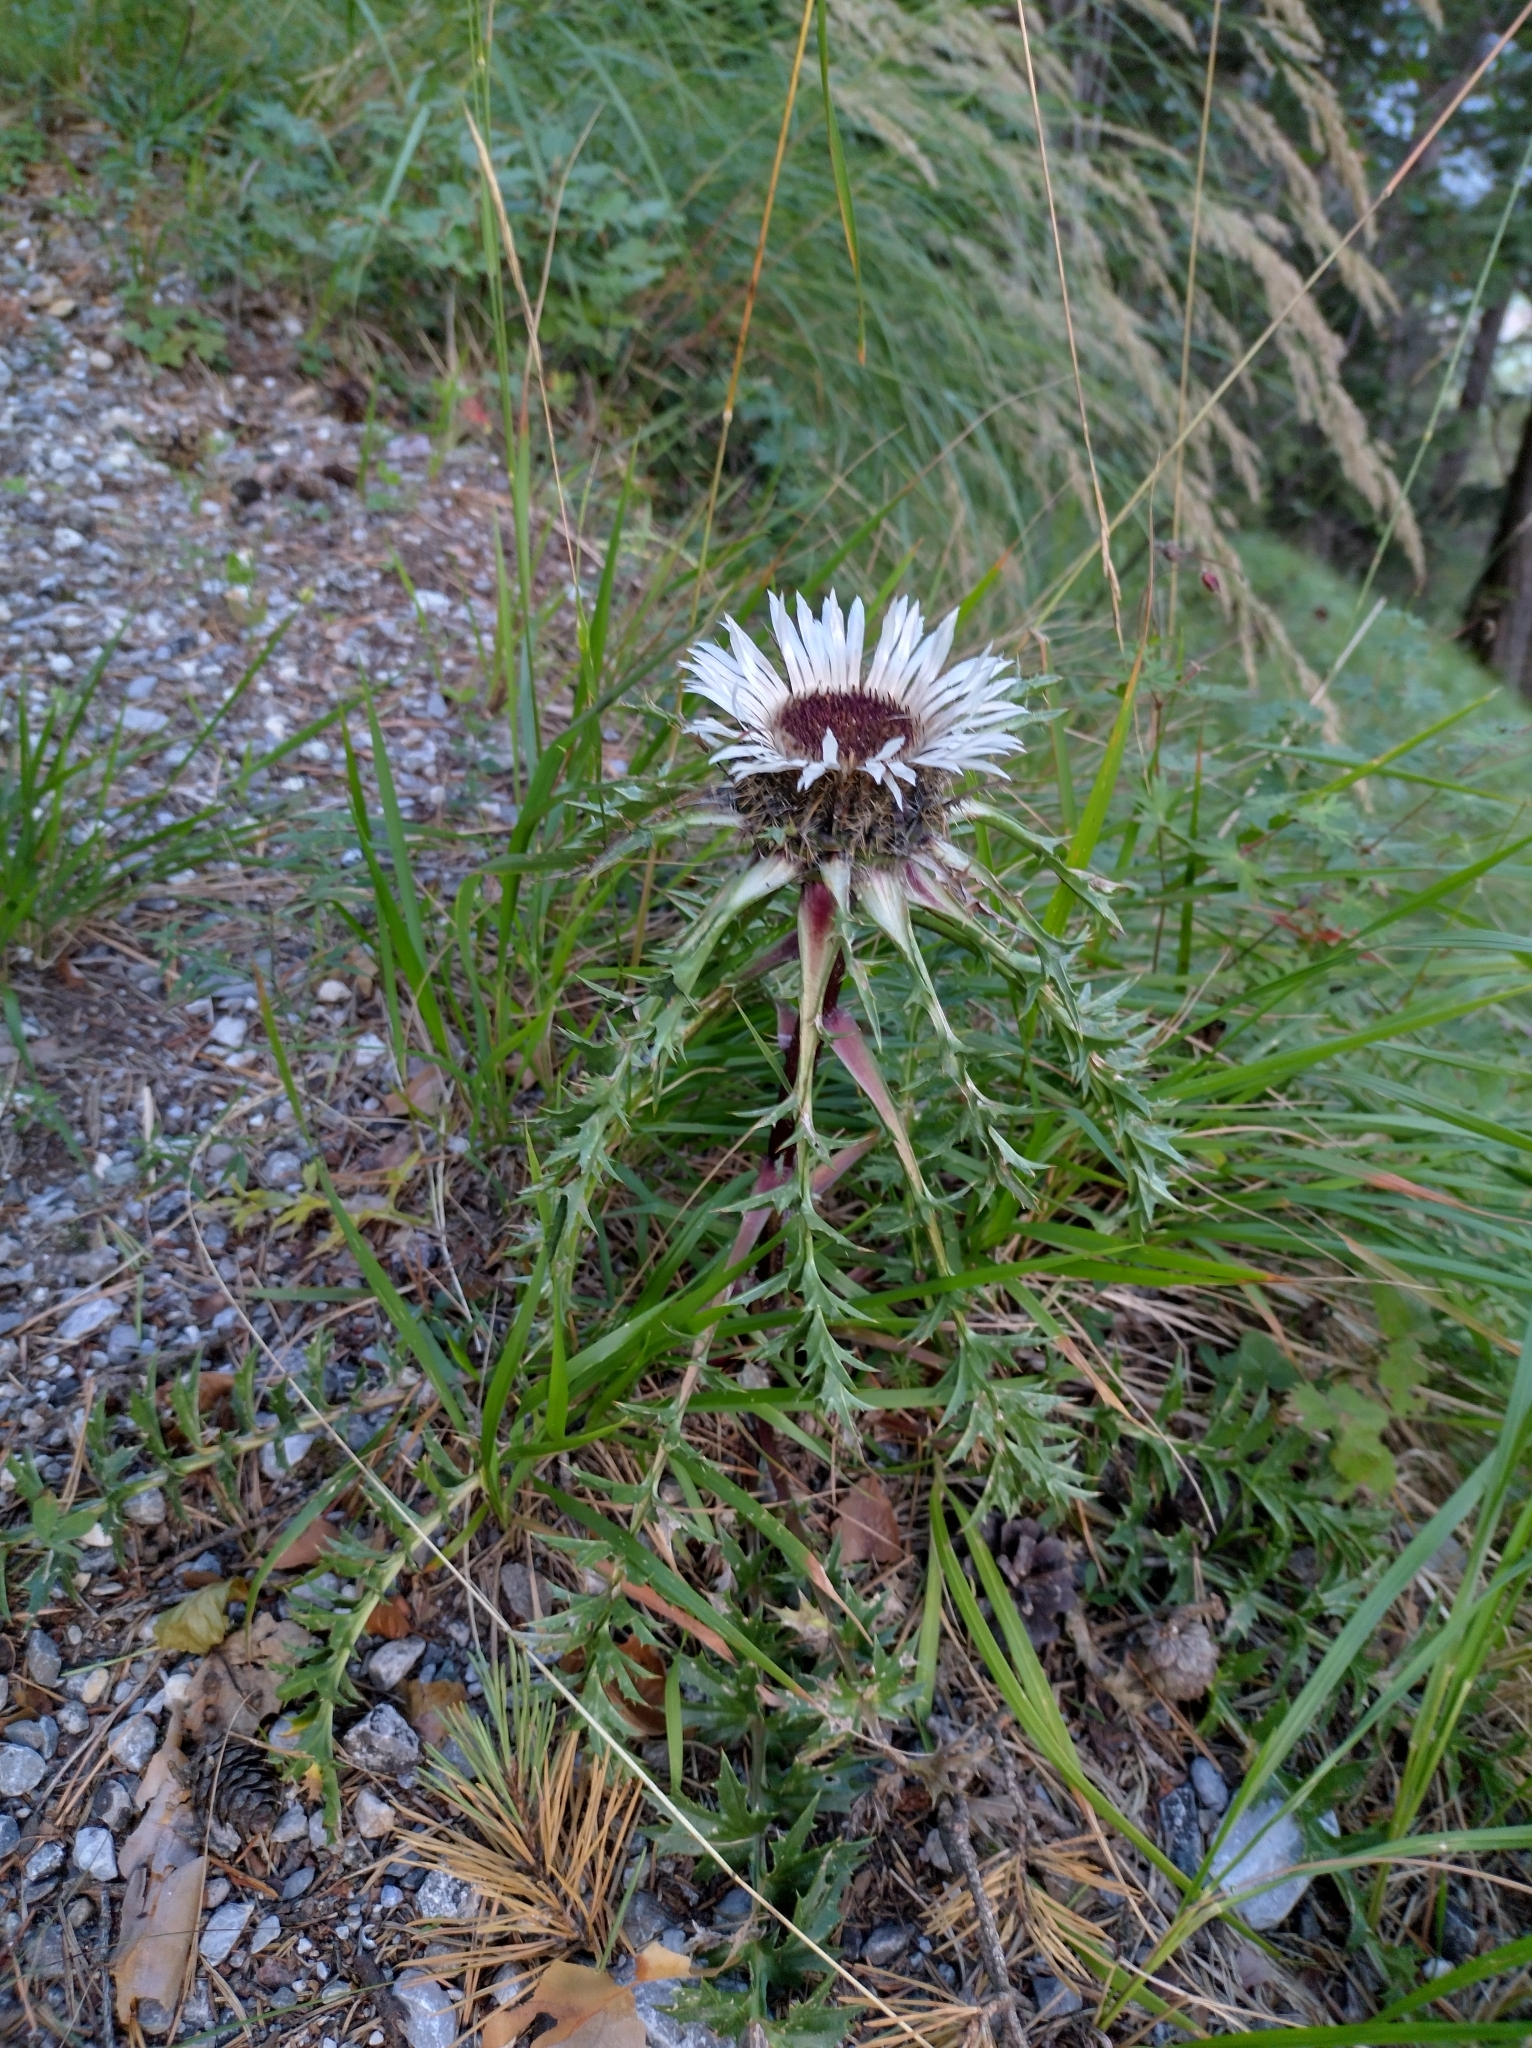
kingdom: Plantae
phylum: Tracheophyta
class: Magnoliopsida
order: Asterales
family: Asteraceae
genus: Carlina
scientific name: Carlina acaulis
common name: Stemless carline thistle
